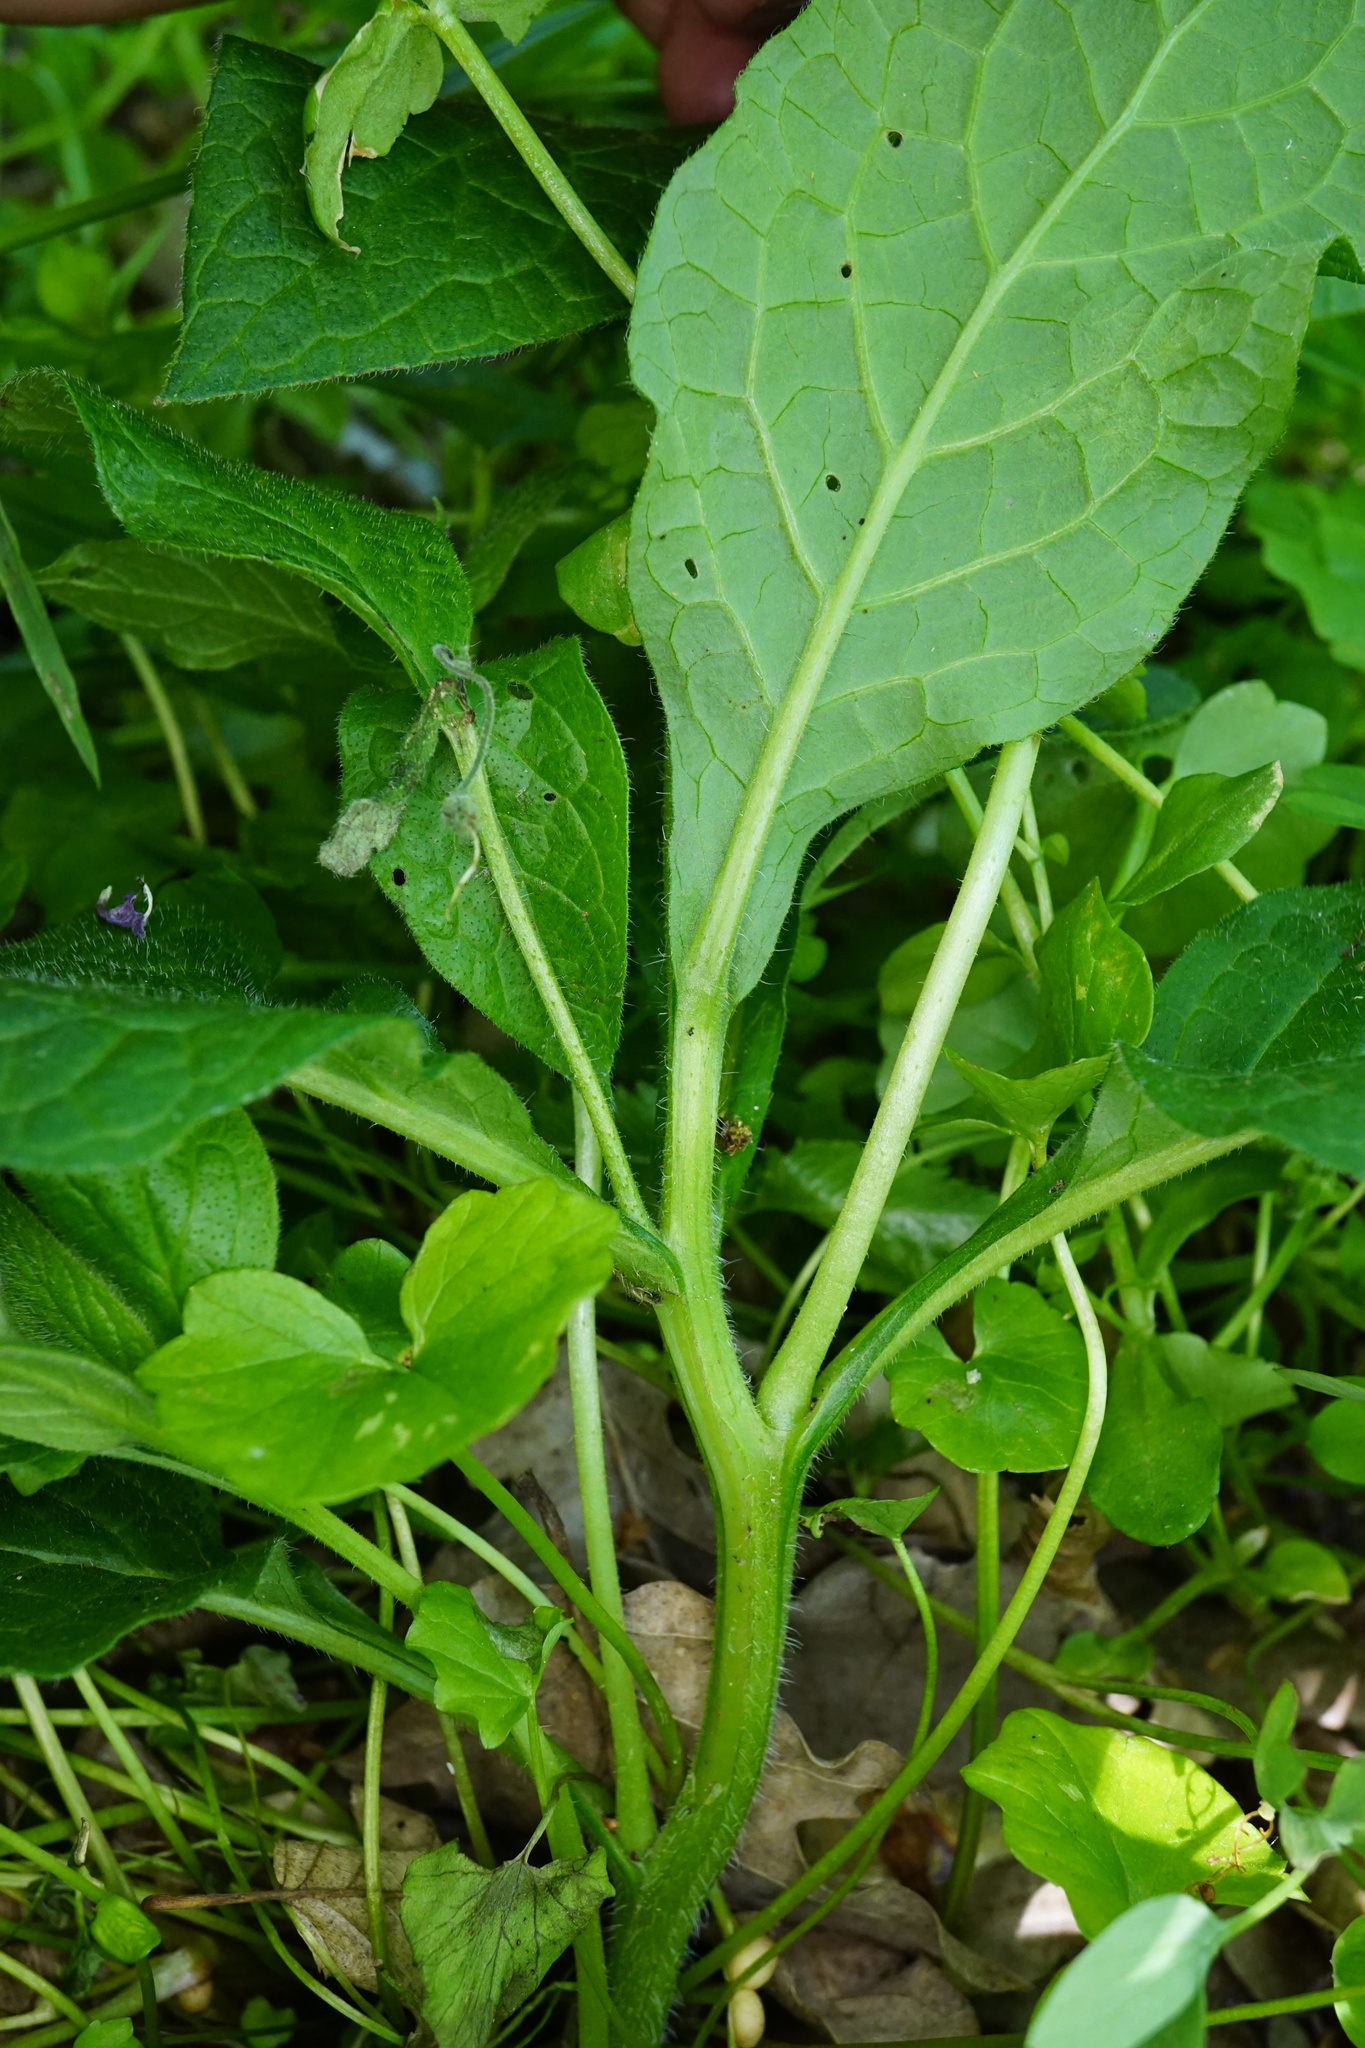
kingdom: Plantae
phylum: Tracheophyta
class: Magnoliopsida
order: Boraginales
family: Boraginaceae
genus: Symphytum
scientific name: Symphytum tuberosum
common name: Tuberous comfrey
